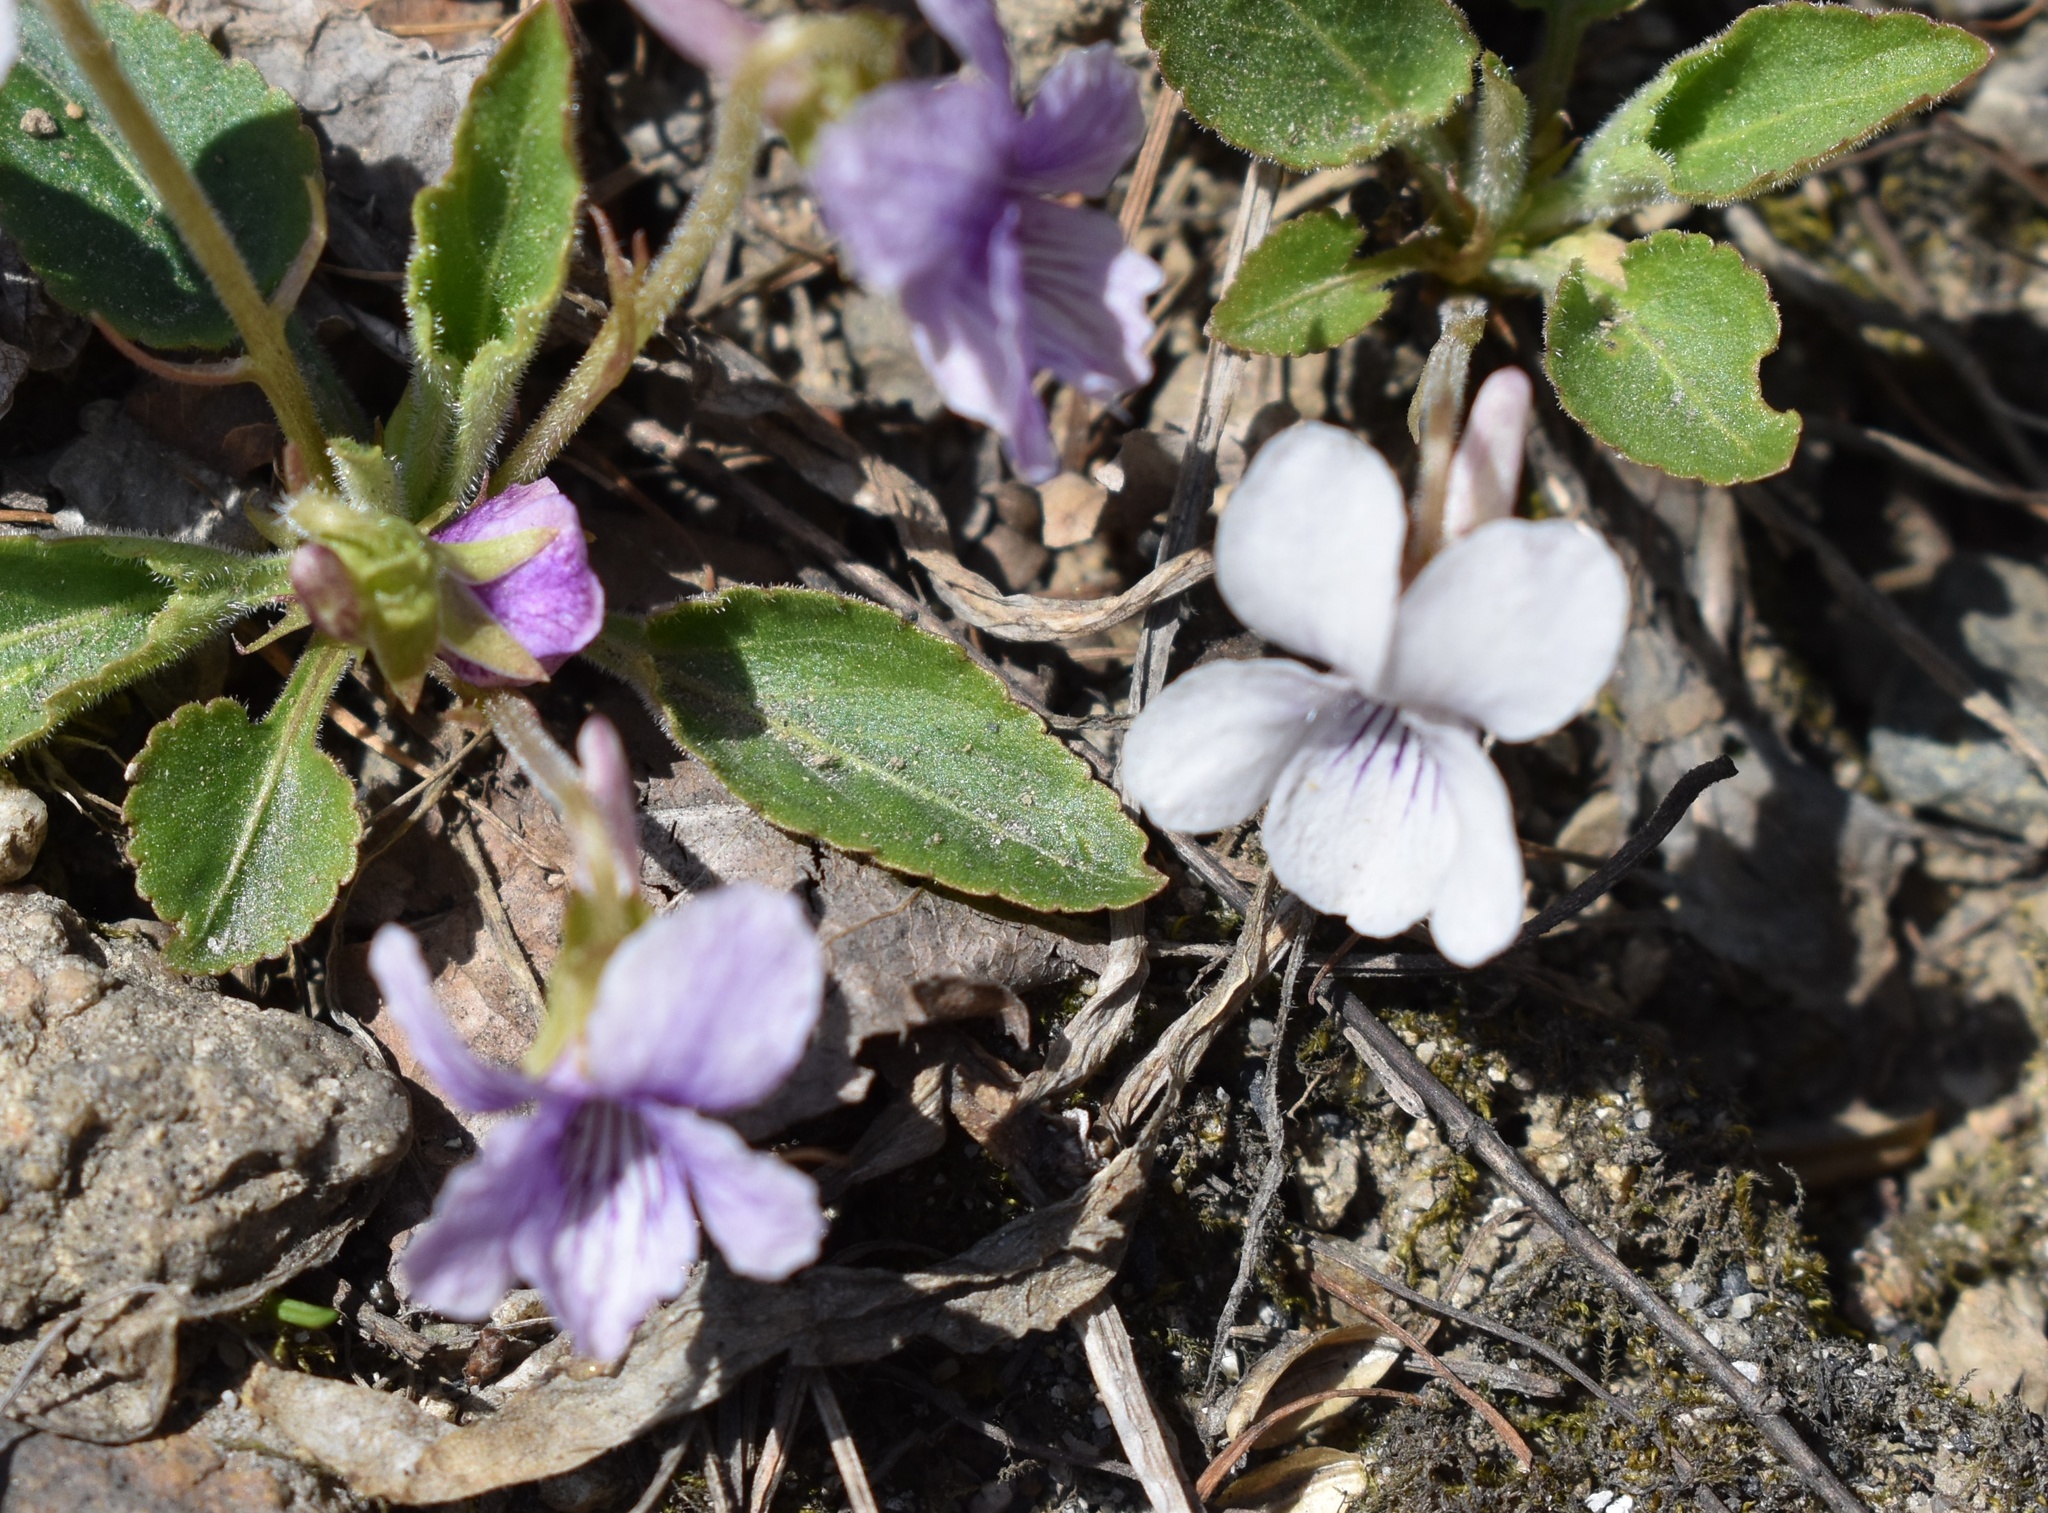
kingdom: Plantae
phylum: Tracheophyta
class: Magnoliopsida
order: Malpighiales
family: Violaceae
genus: Viola
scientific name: Viola prionantha
